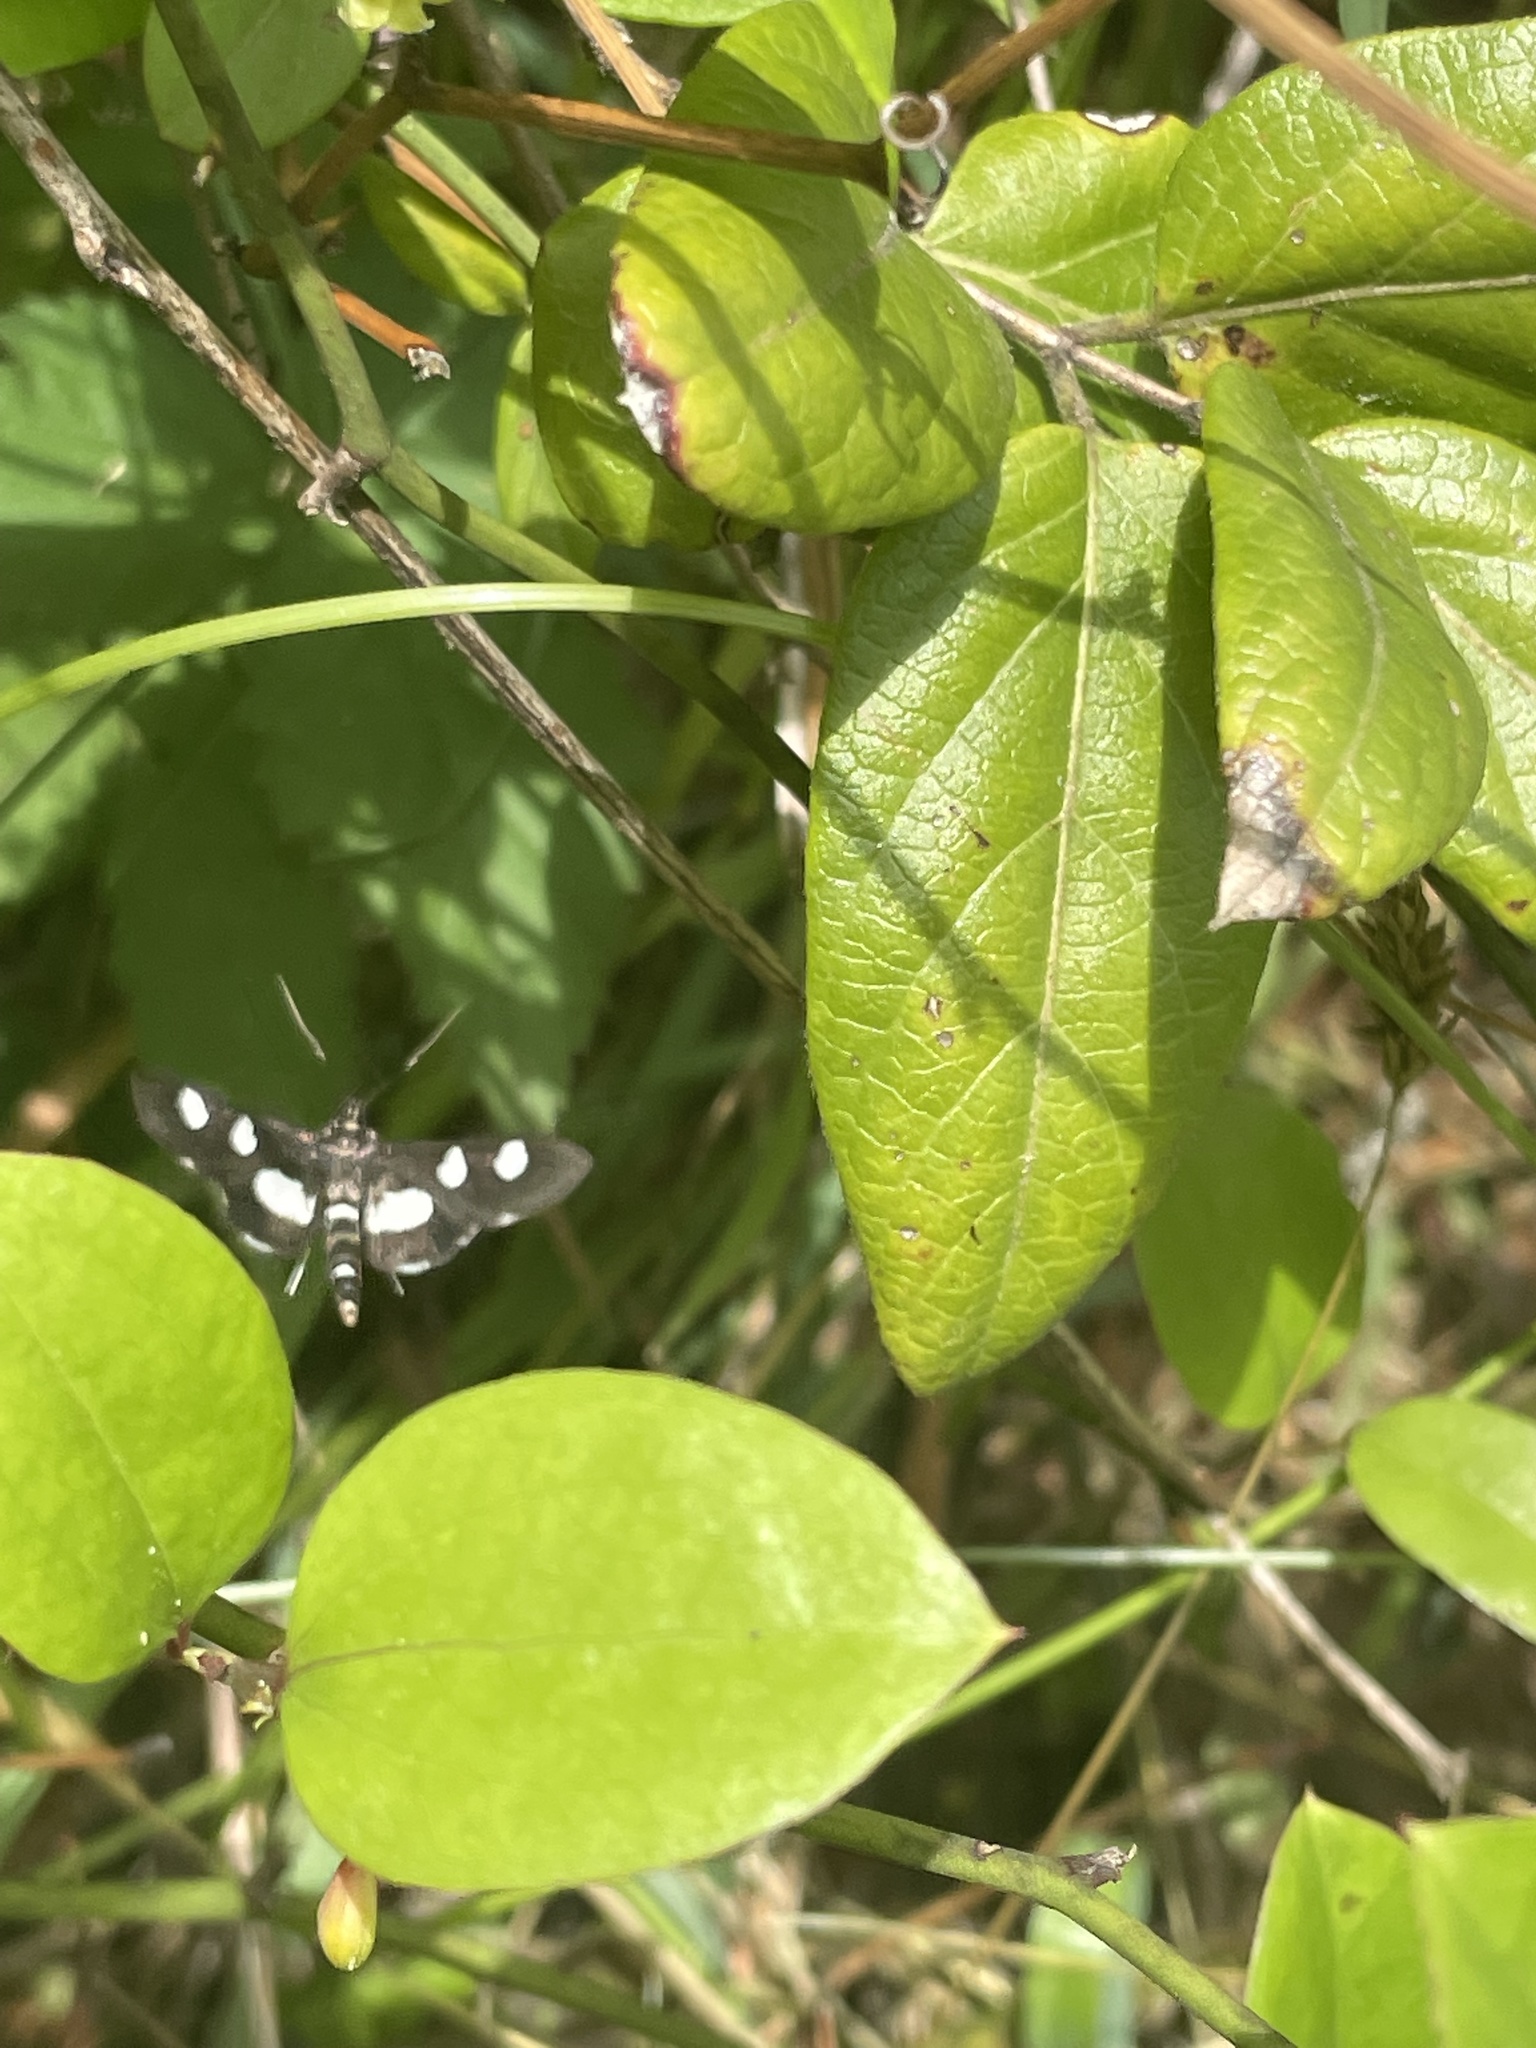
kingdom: Animalia
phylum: Arthropoda
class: Insecta
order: Lepidoptera
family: Crambidae
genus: Desmia
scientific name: Desmia
